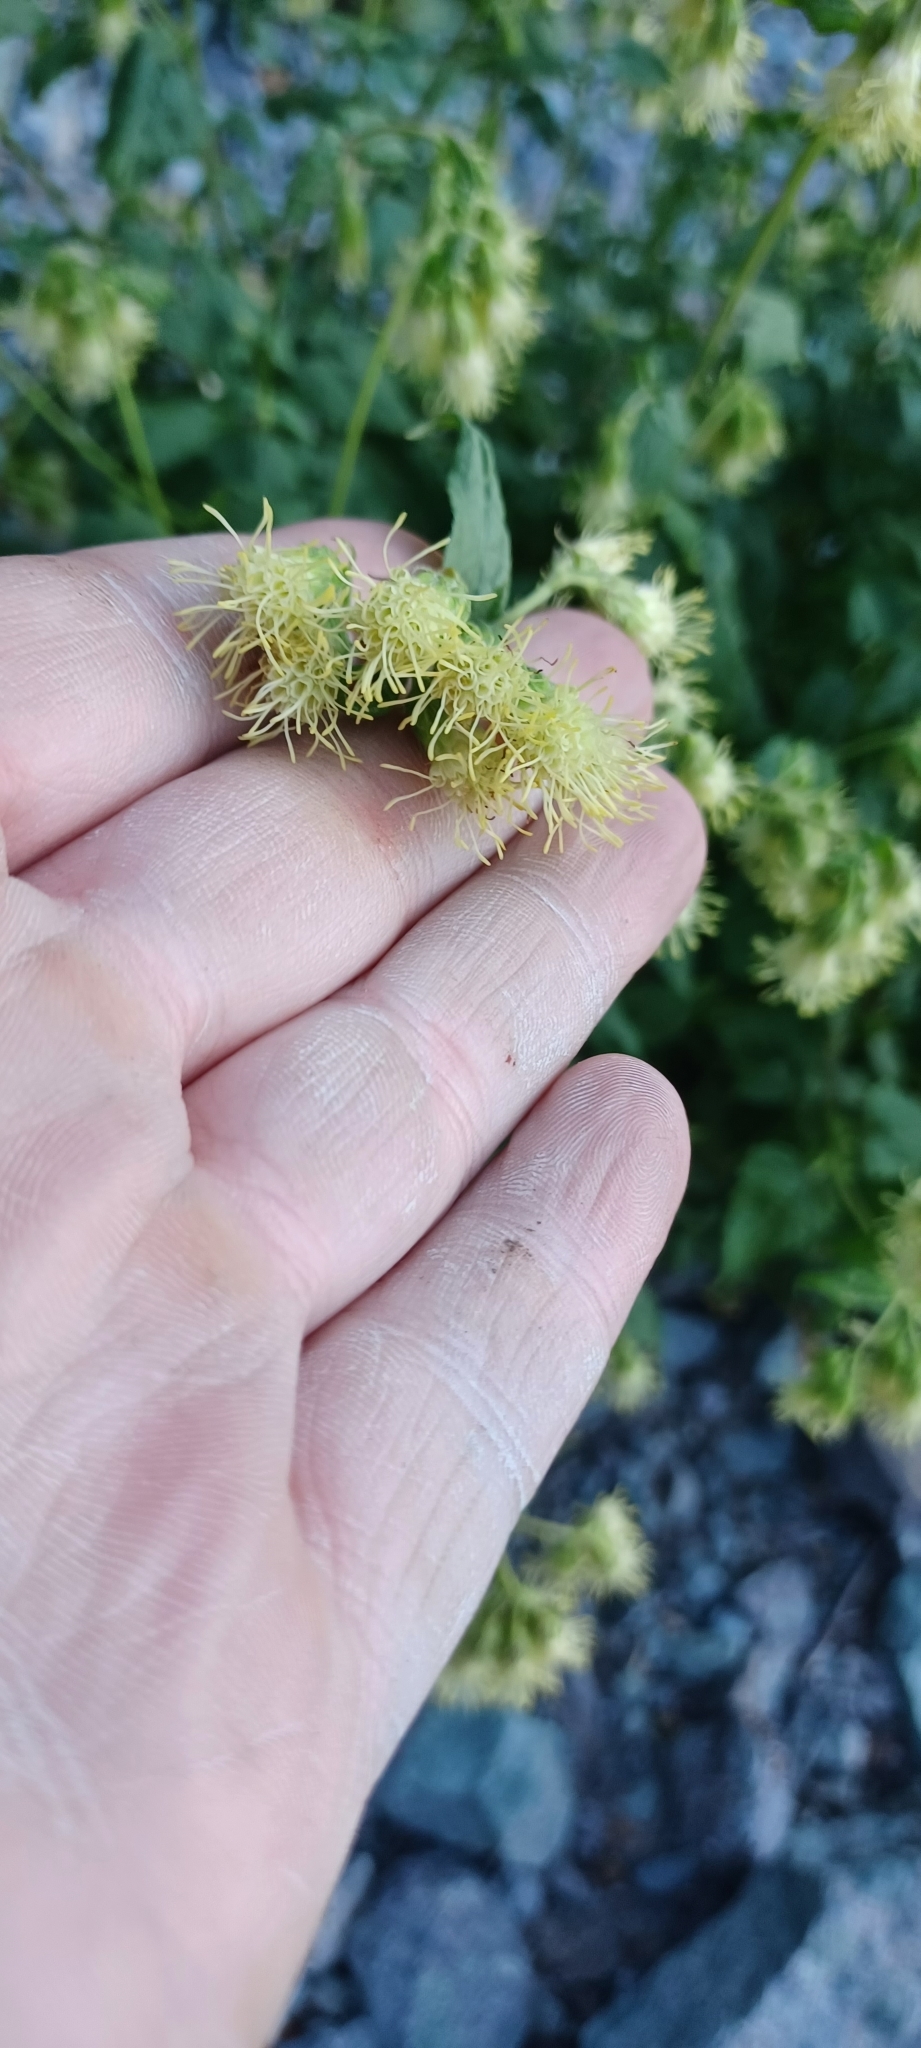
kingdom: Plantae
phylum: Tracheophyta
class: Magnoliopsida
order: Asterales
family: Asteraceae
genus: Brickellia
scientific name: Brickellia grandiflora
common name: Large-flowered brickellia
